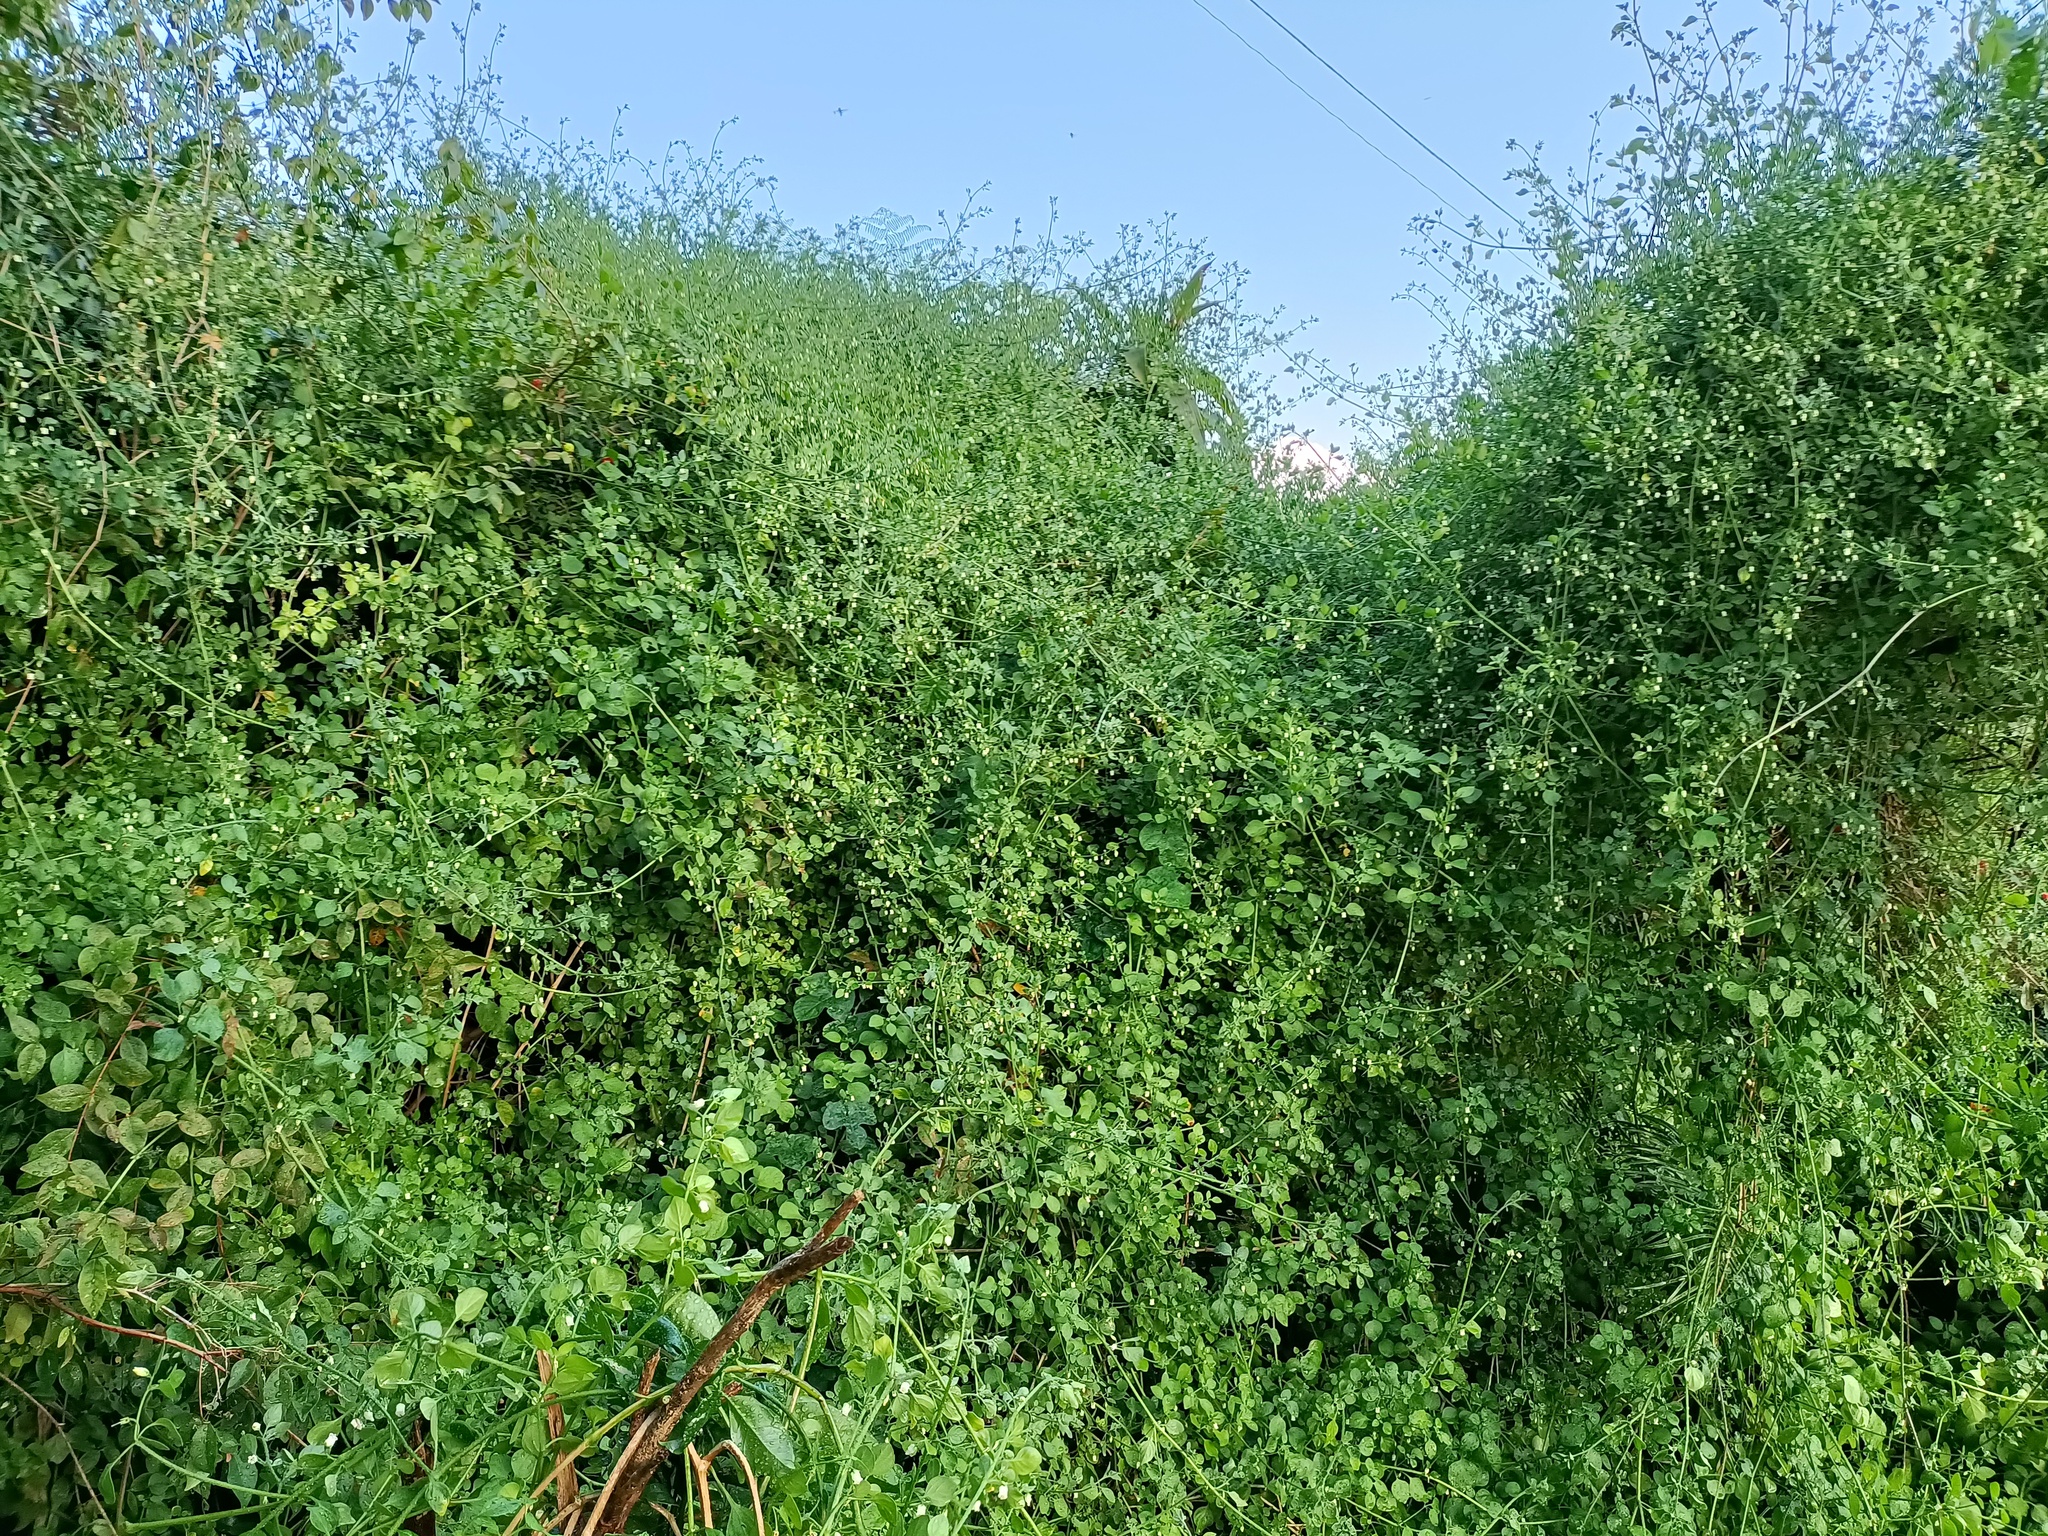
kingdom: Plantae
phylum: Tracheophyta
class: Magnoliopsida
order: Solanales
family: Solanaceae
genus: Salpichroa
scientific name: Salpichroa origanifolia
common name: Lily-of-the-valley-vine
